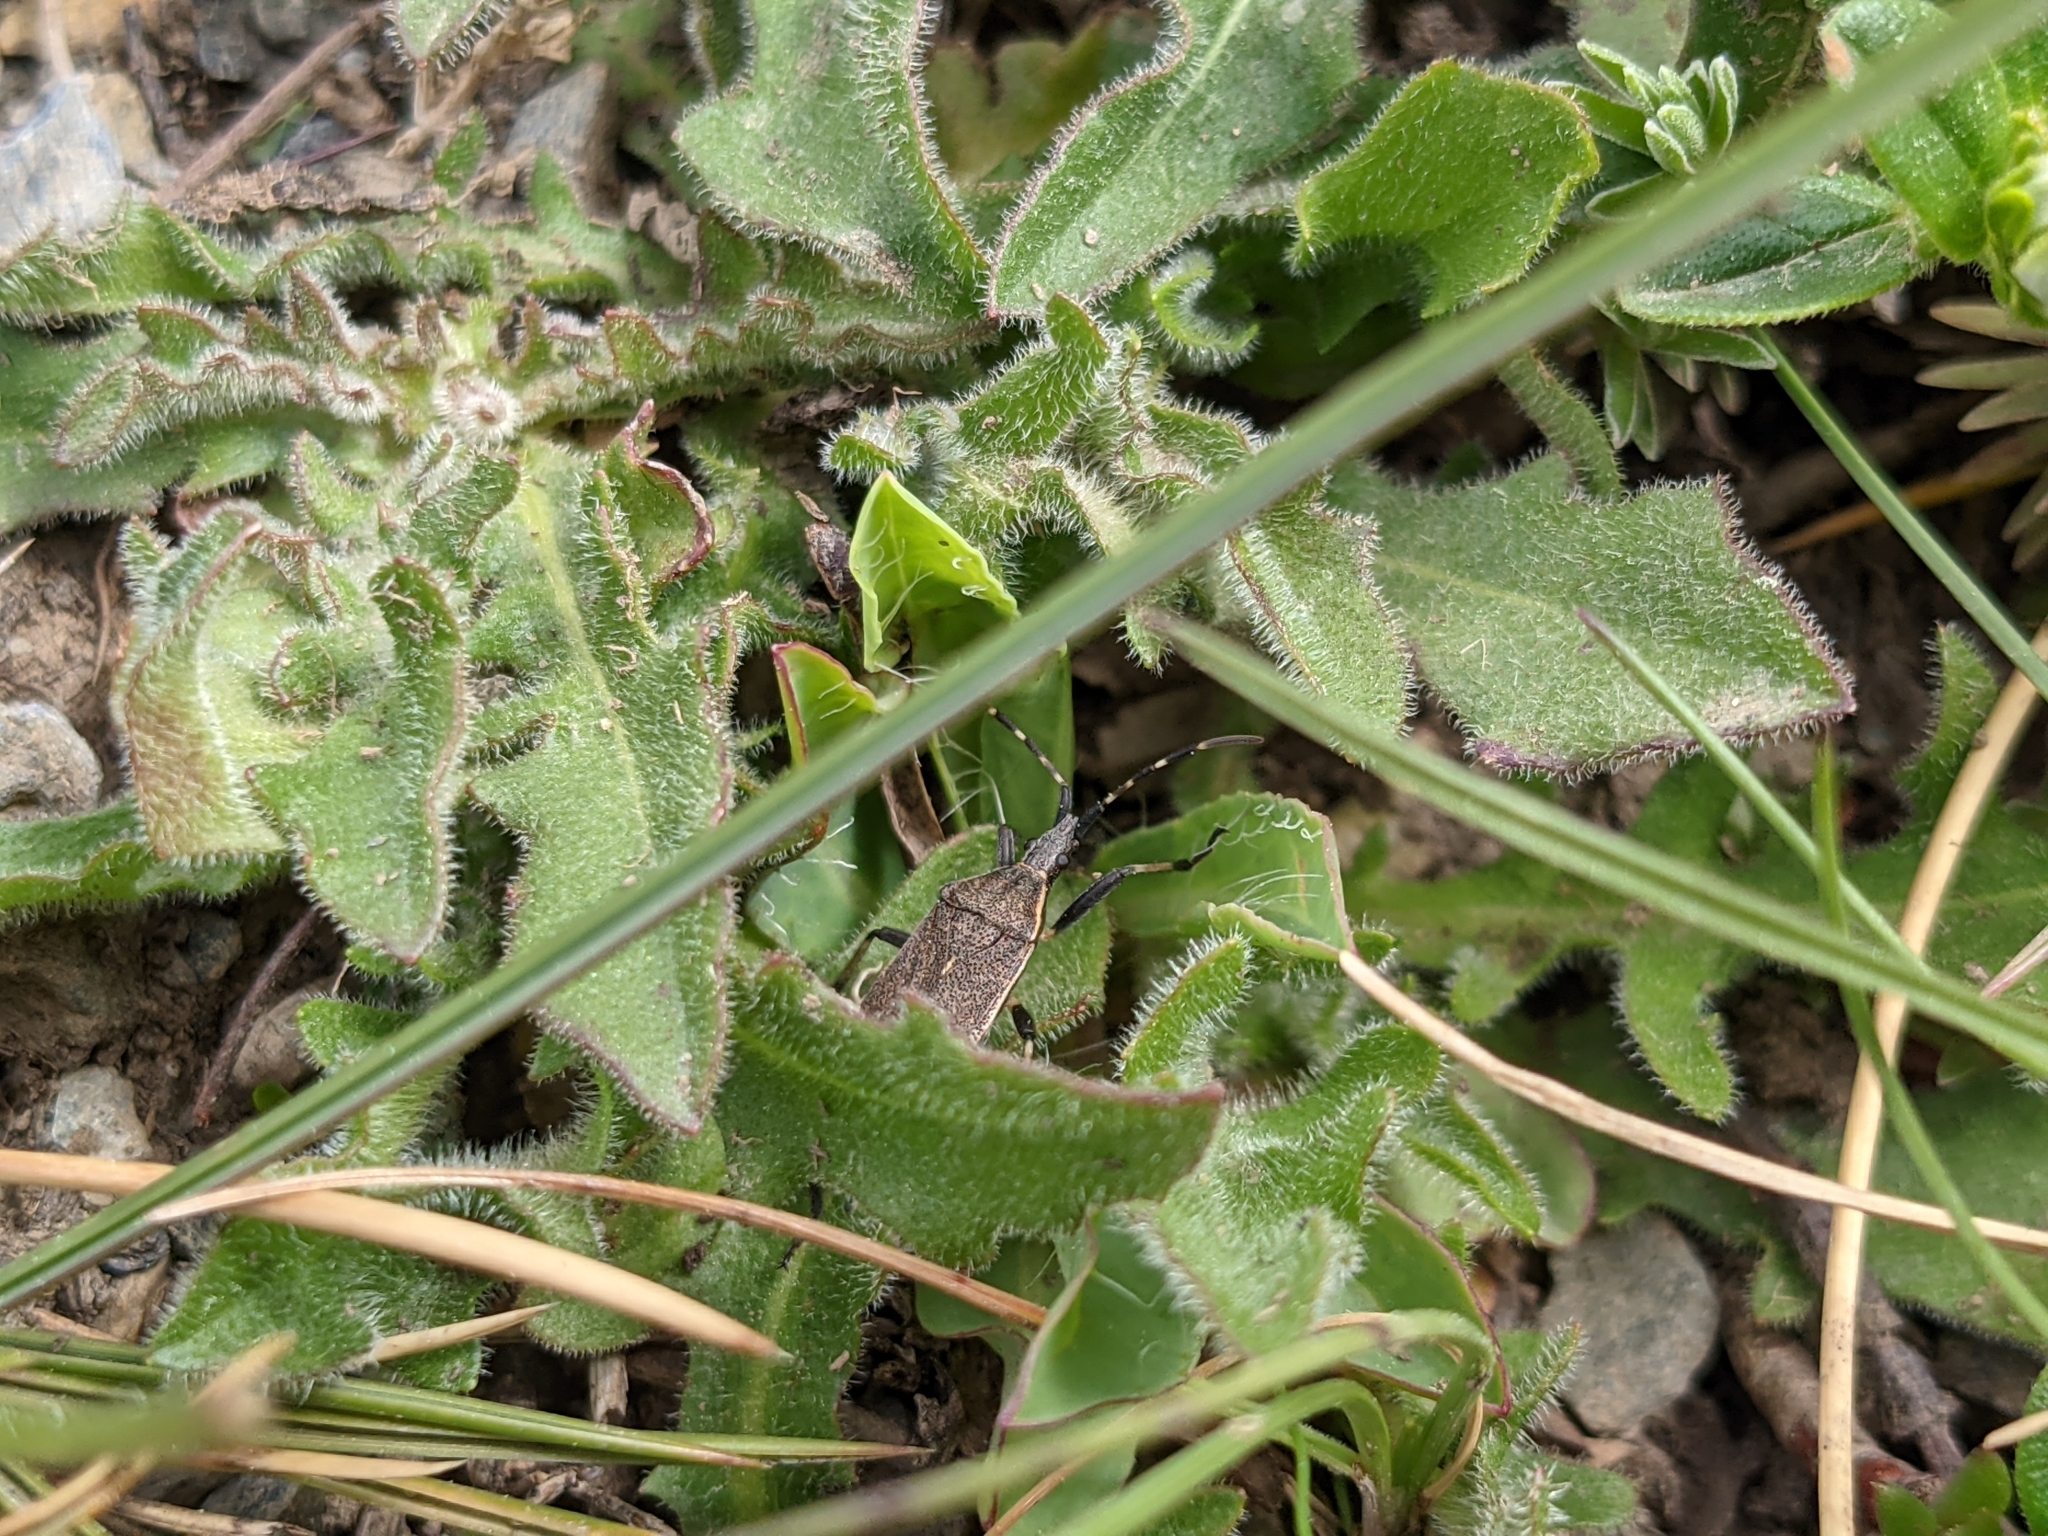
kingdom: Animalia
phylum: Arthropoda
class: Insecta
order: Hemiptera
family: Stenocephalidae
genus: Dicranocephalus
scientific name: Dicranocephalus marginicollis
